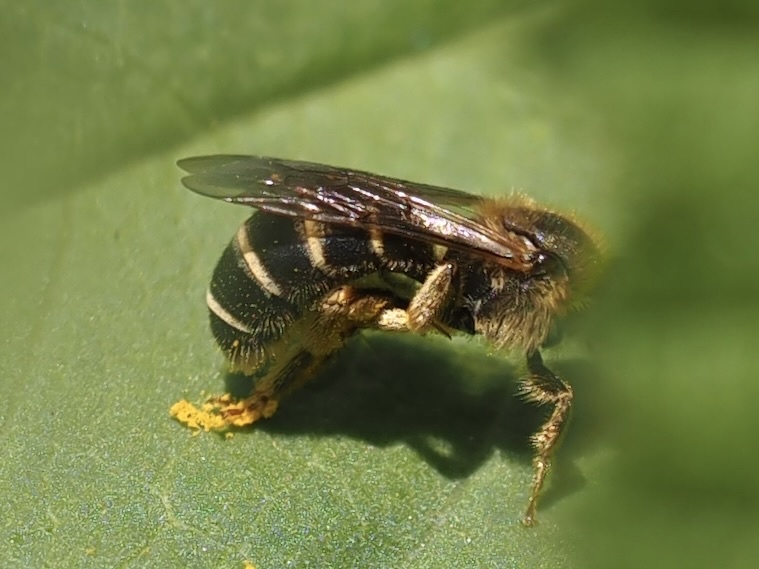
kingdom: Animalia
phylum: Arthropoda
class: Insecta
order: Hymenoptera
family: Halictidae
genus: Halictus
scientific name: Halictus rubicundus
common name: Orange-legged furrow bee
